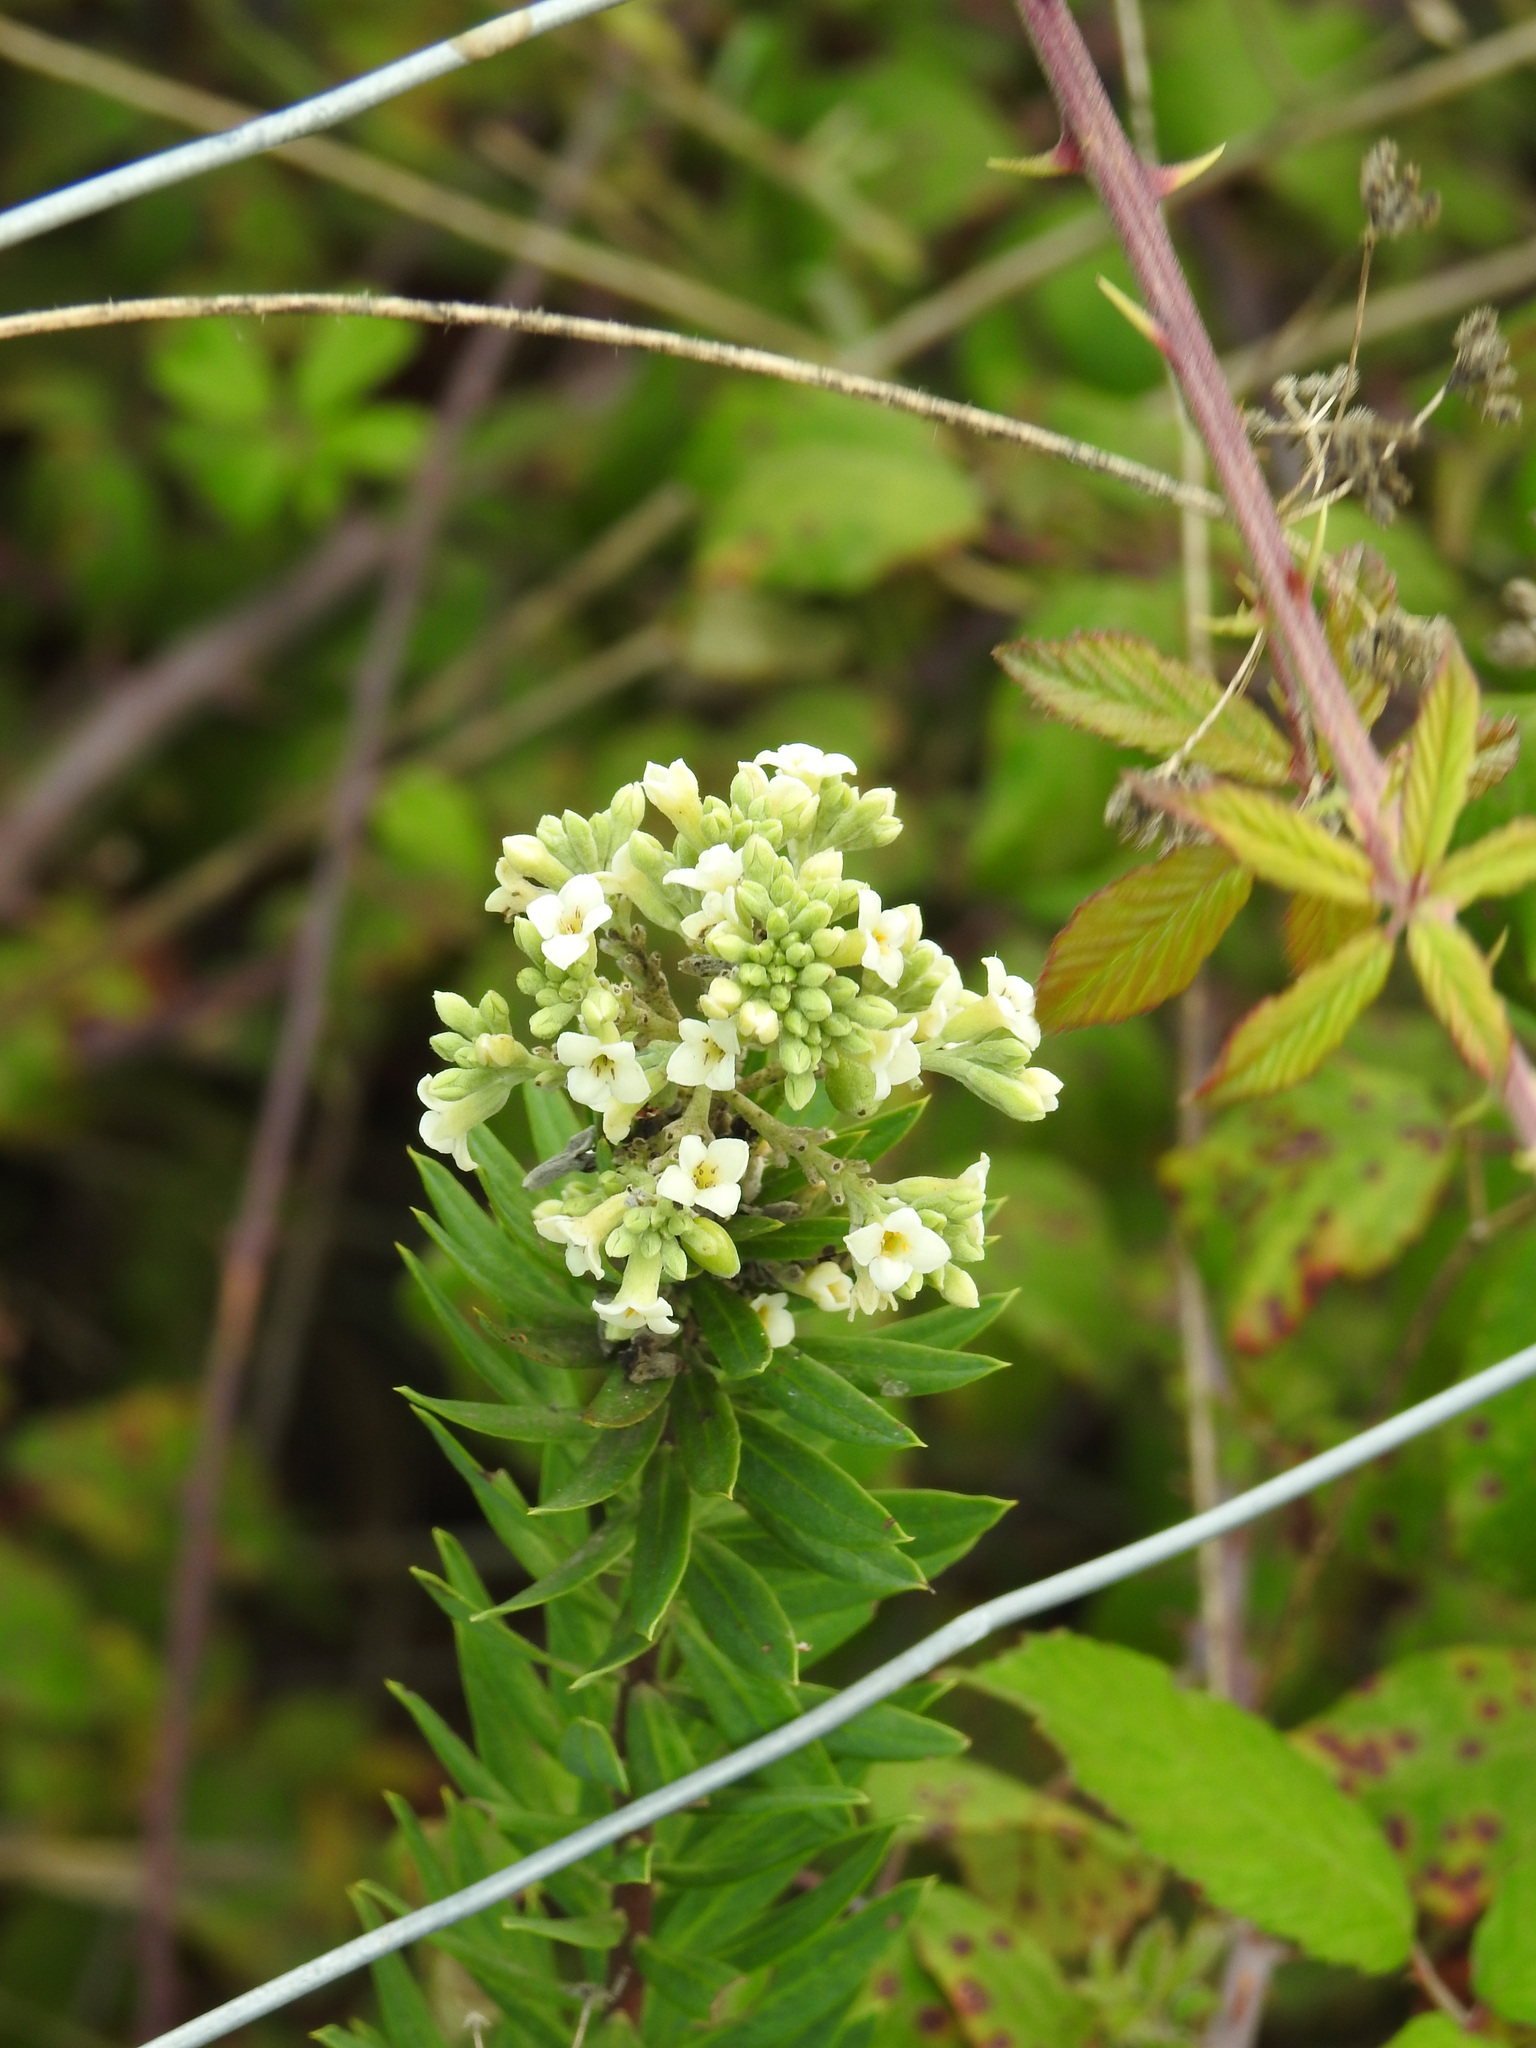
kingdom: Plantae
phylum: Tracheophyta
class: Magnoliopsida
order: Malvales
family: Thymelaeaceae
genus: Daphne
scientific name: Daphne gnidium
